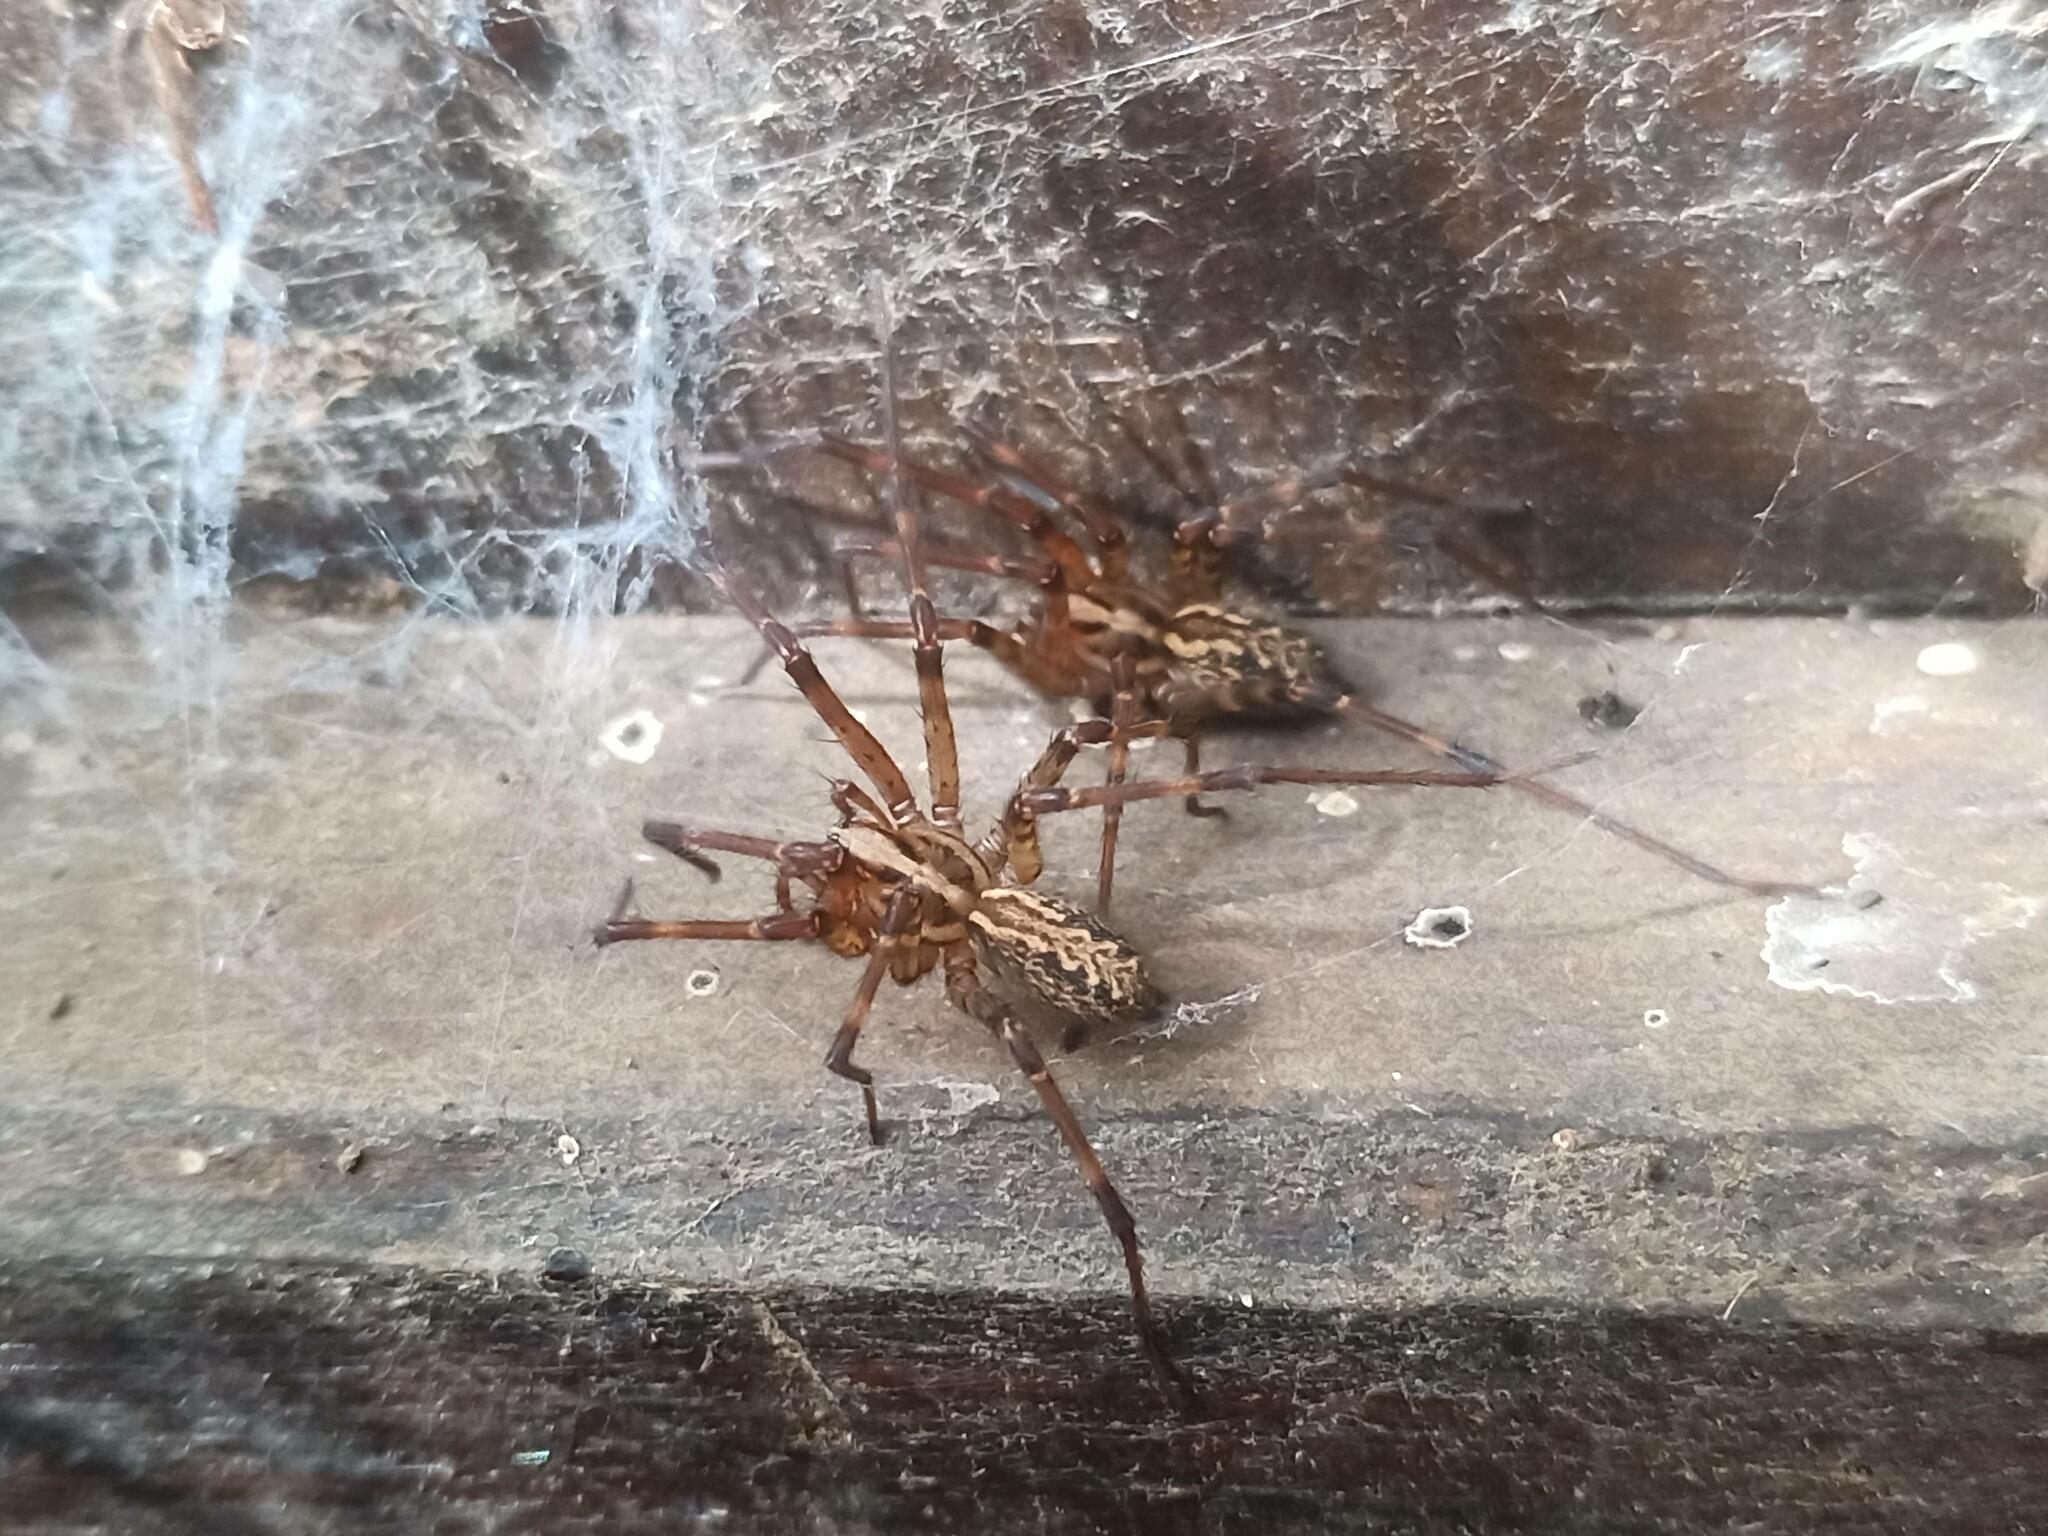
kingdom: Animalia
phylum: Arthropoda
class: Arachnida
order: Araneae
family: Agelenidae
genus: Eratigena
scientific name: Eratigena inermis
